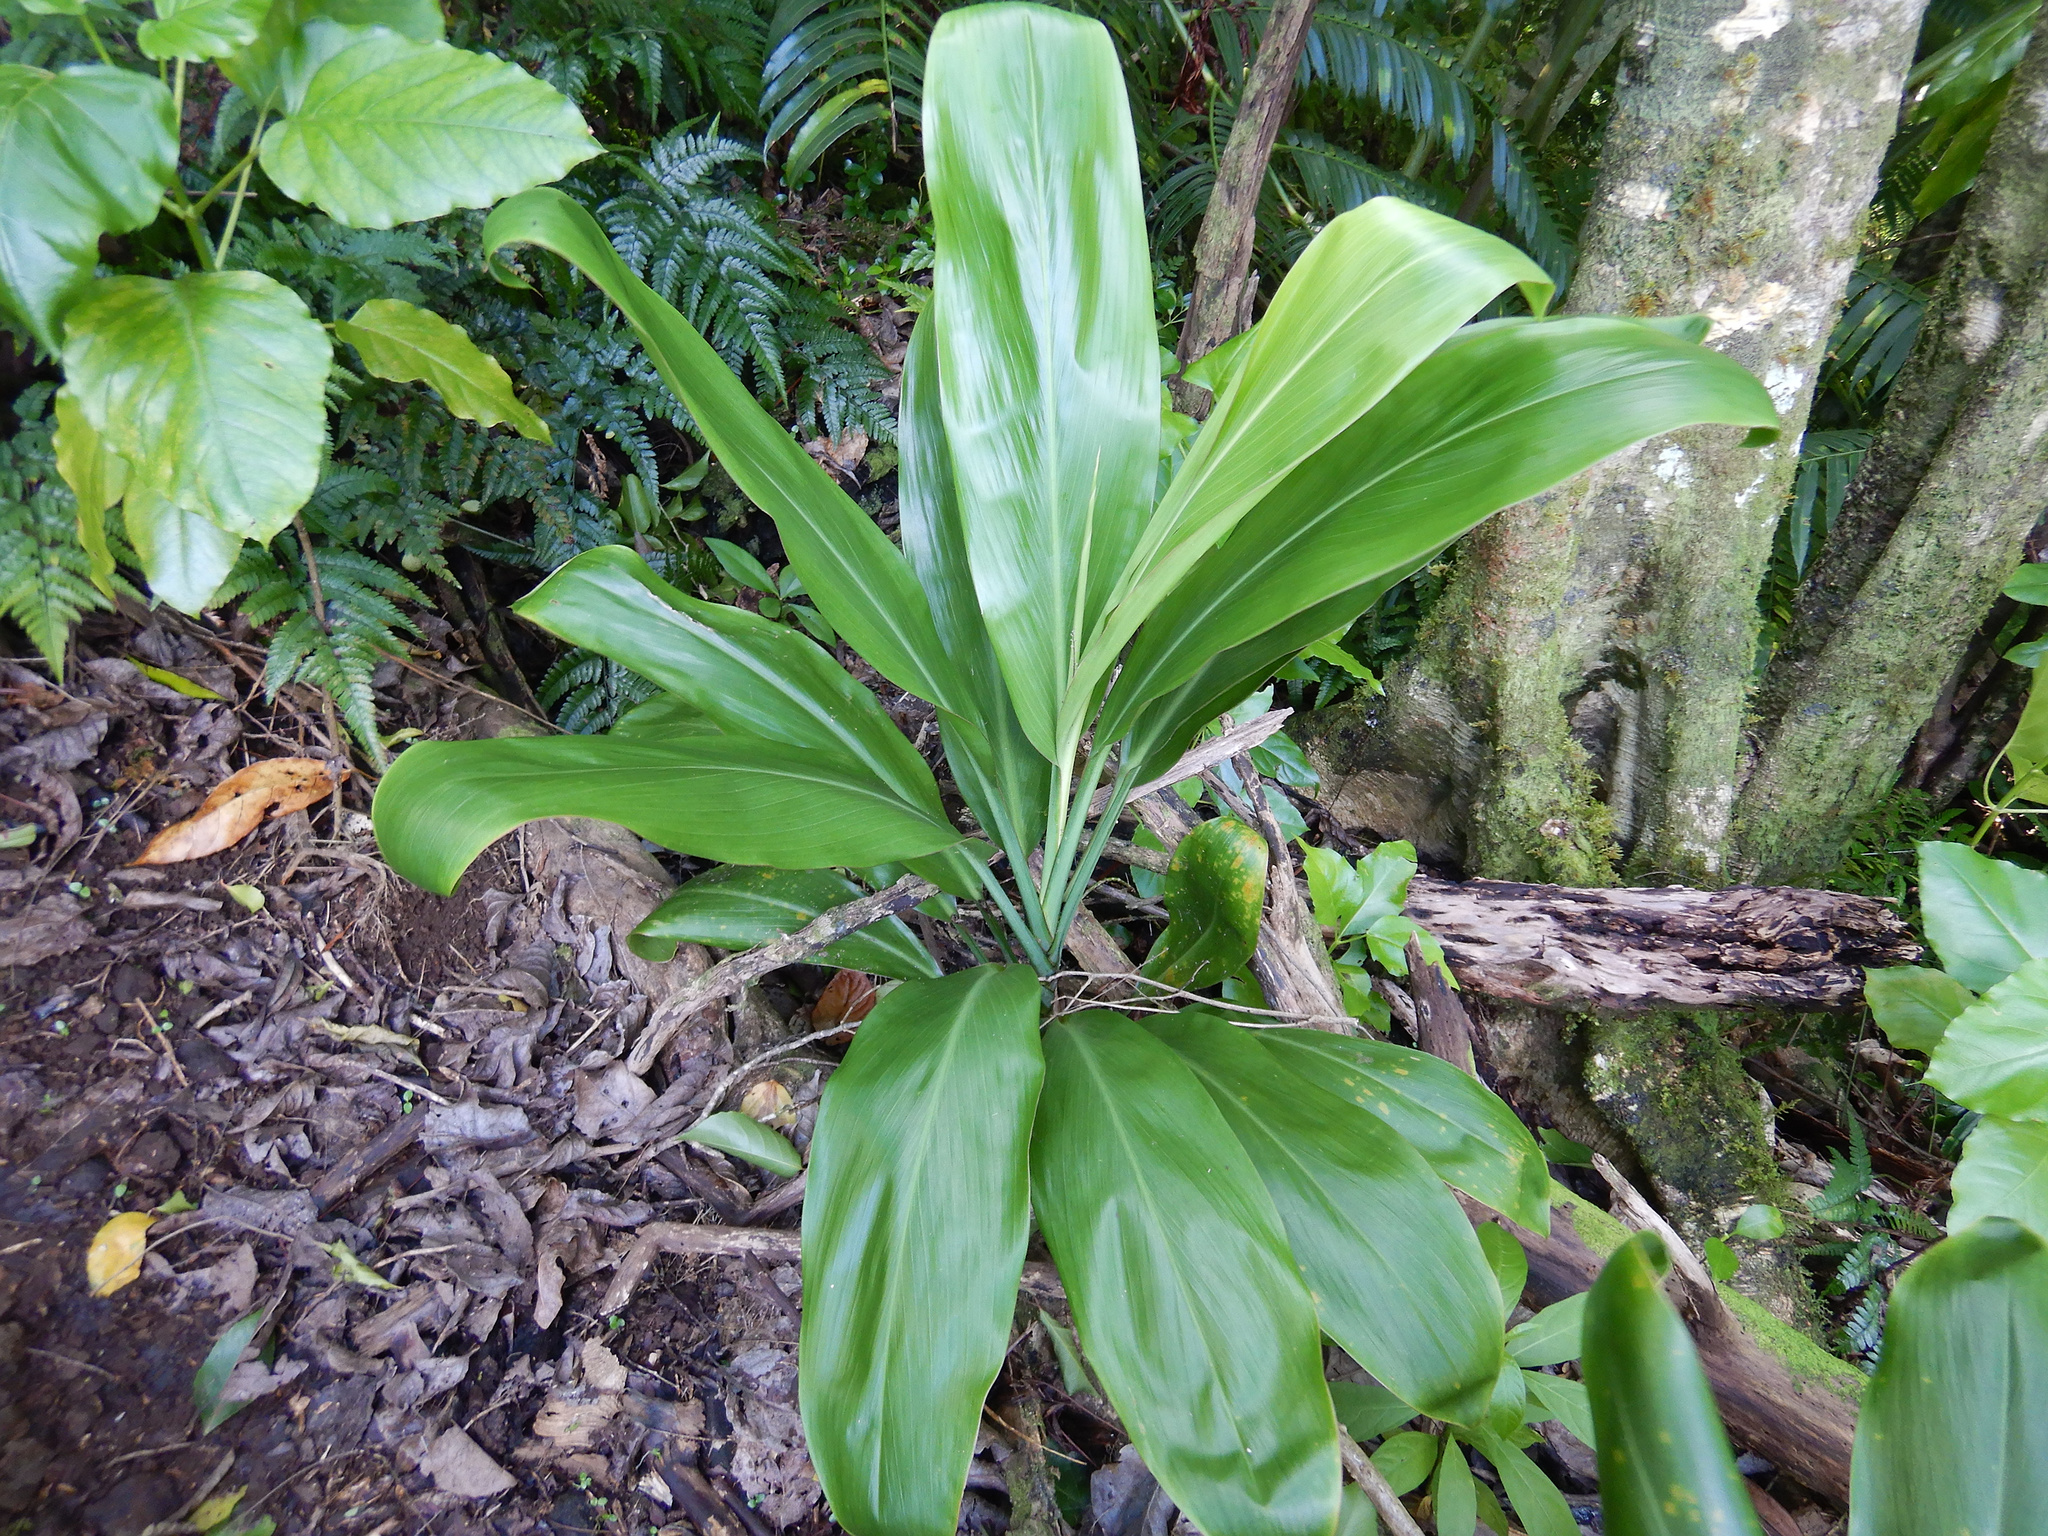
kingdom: Plantae
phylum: Tracheophyta
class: Liliopsida
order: Asparagales
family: Asparagaceae
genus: Cordyline
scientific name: Cordyline fruticosa
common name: Good-luck-plant
